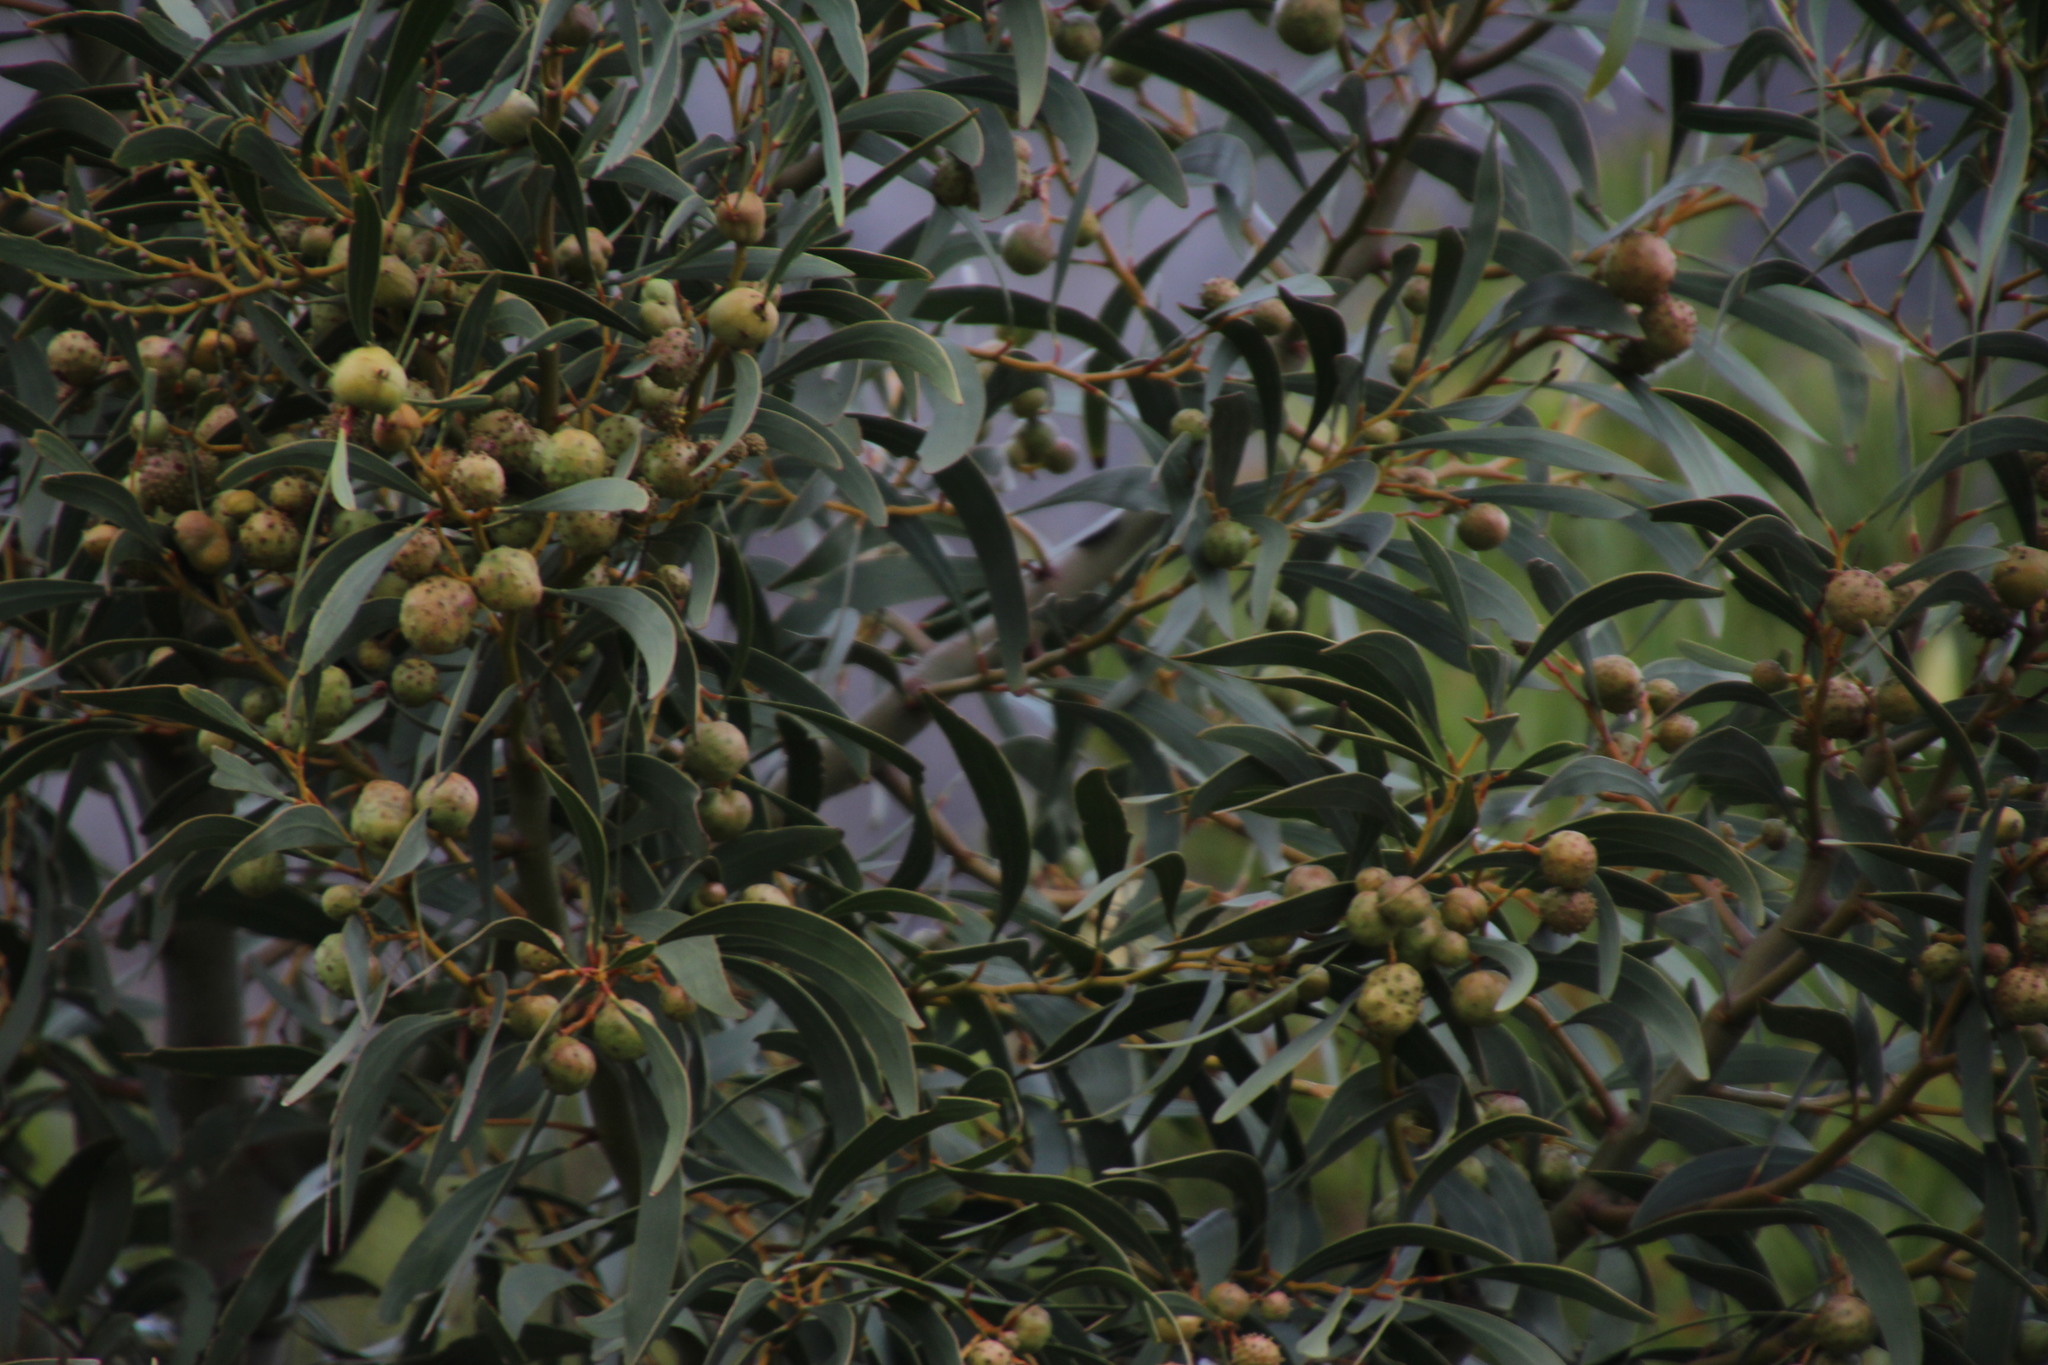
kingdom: Plantae
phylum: Tracheophyta
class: Magnoliopsida
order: Fabales
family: Fabaceae
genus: Acacia
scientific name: Acacia pycnantha
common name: Golden wattle
